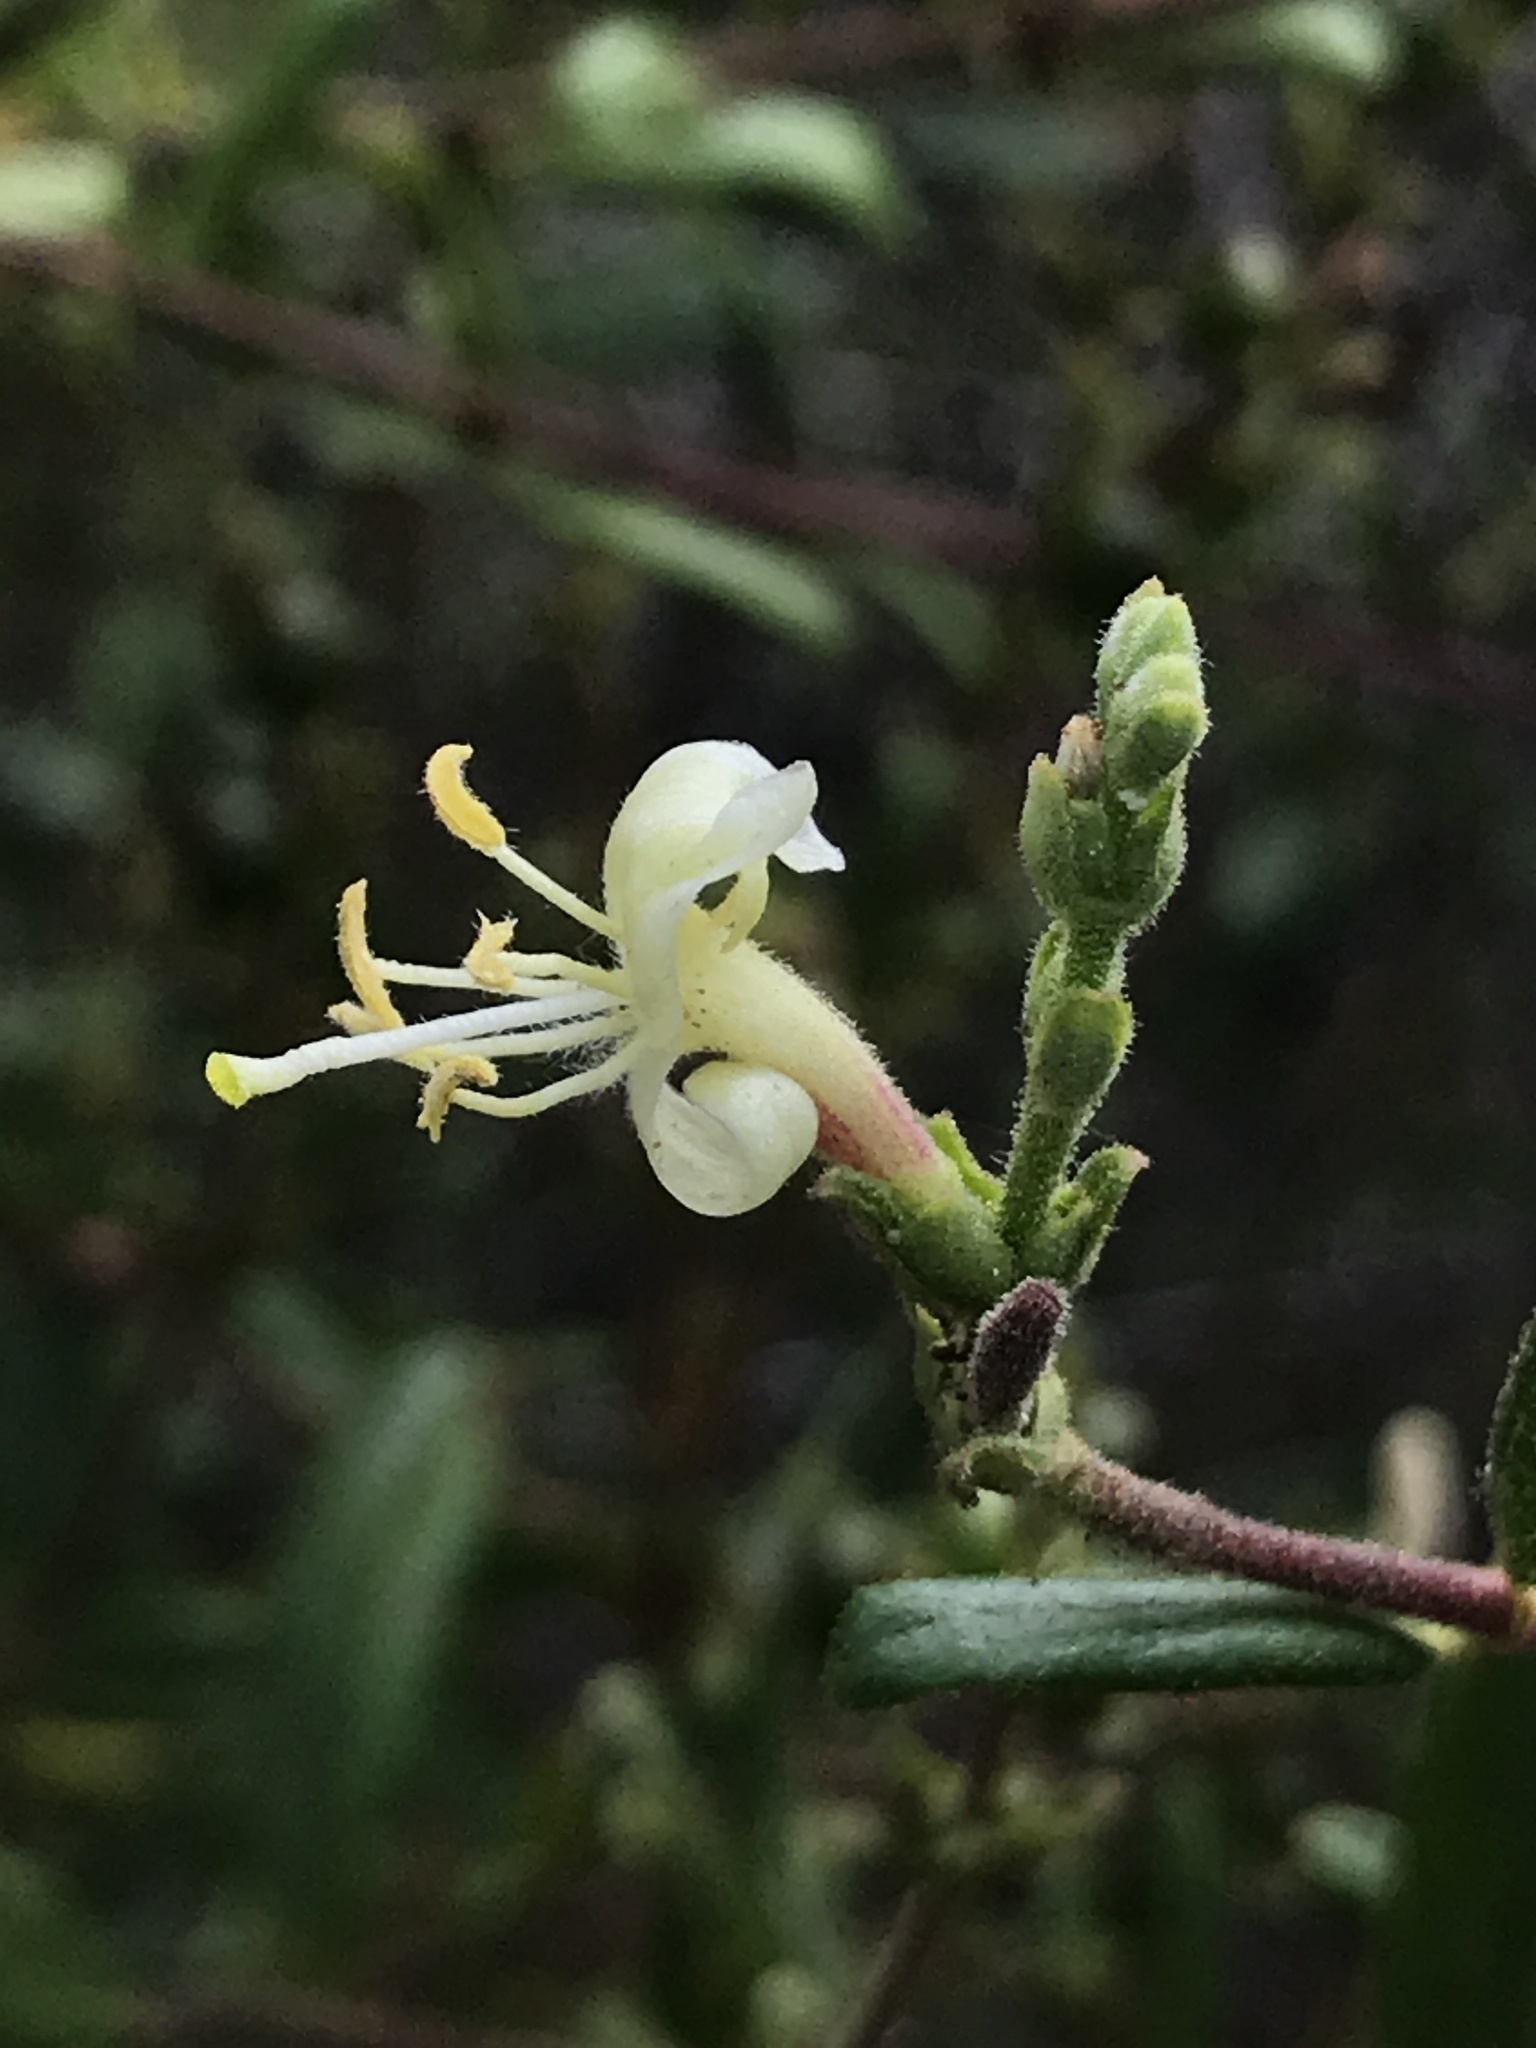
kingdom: Plantae
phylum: Tracheophyta
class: Magnoliopsida
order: Dipsacales
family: Caprifoliaceae
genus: Lonicera
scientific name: Lonicera subspicata
